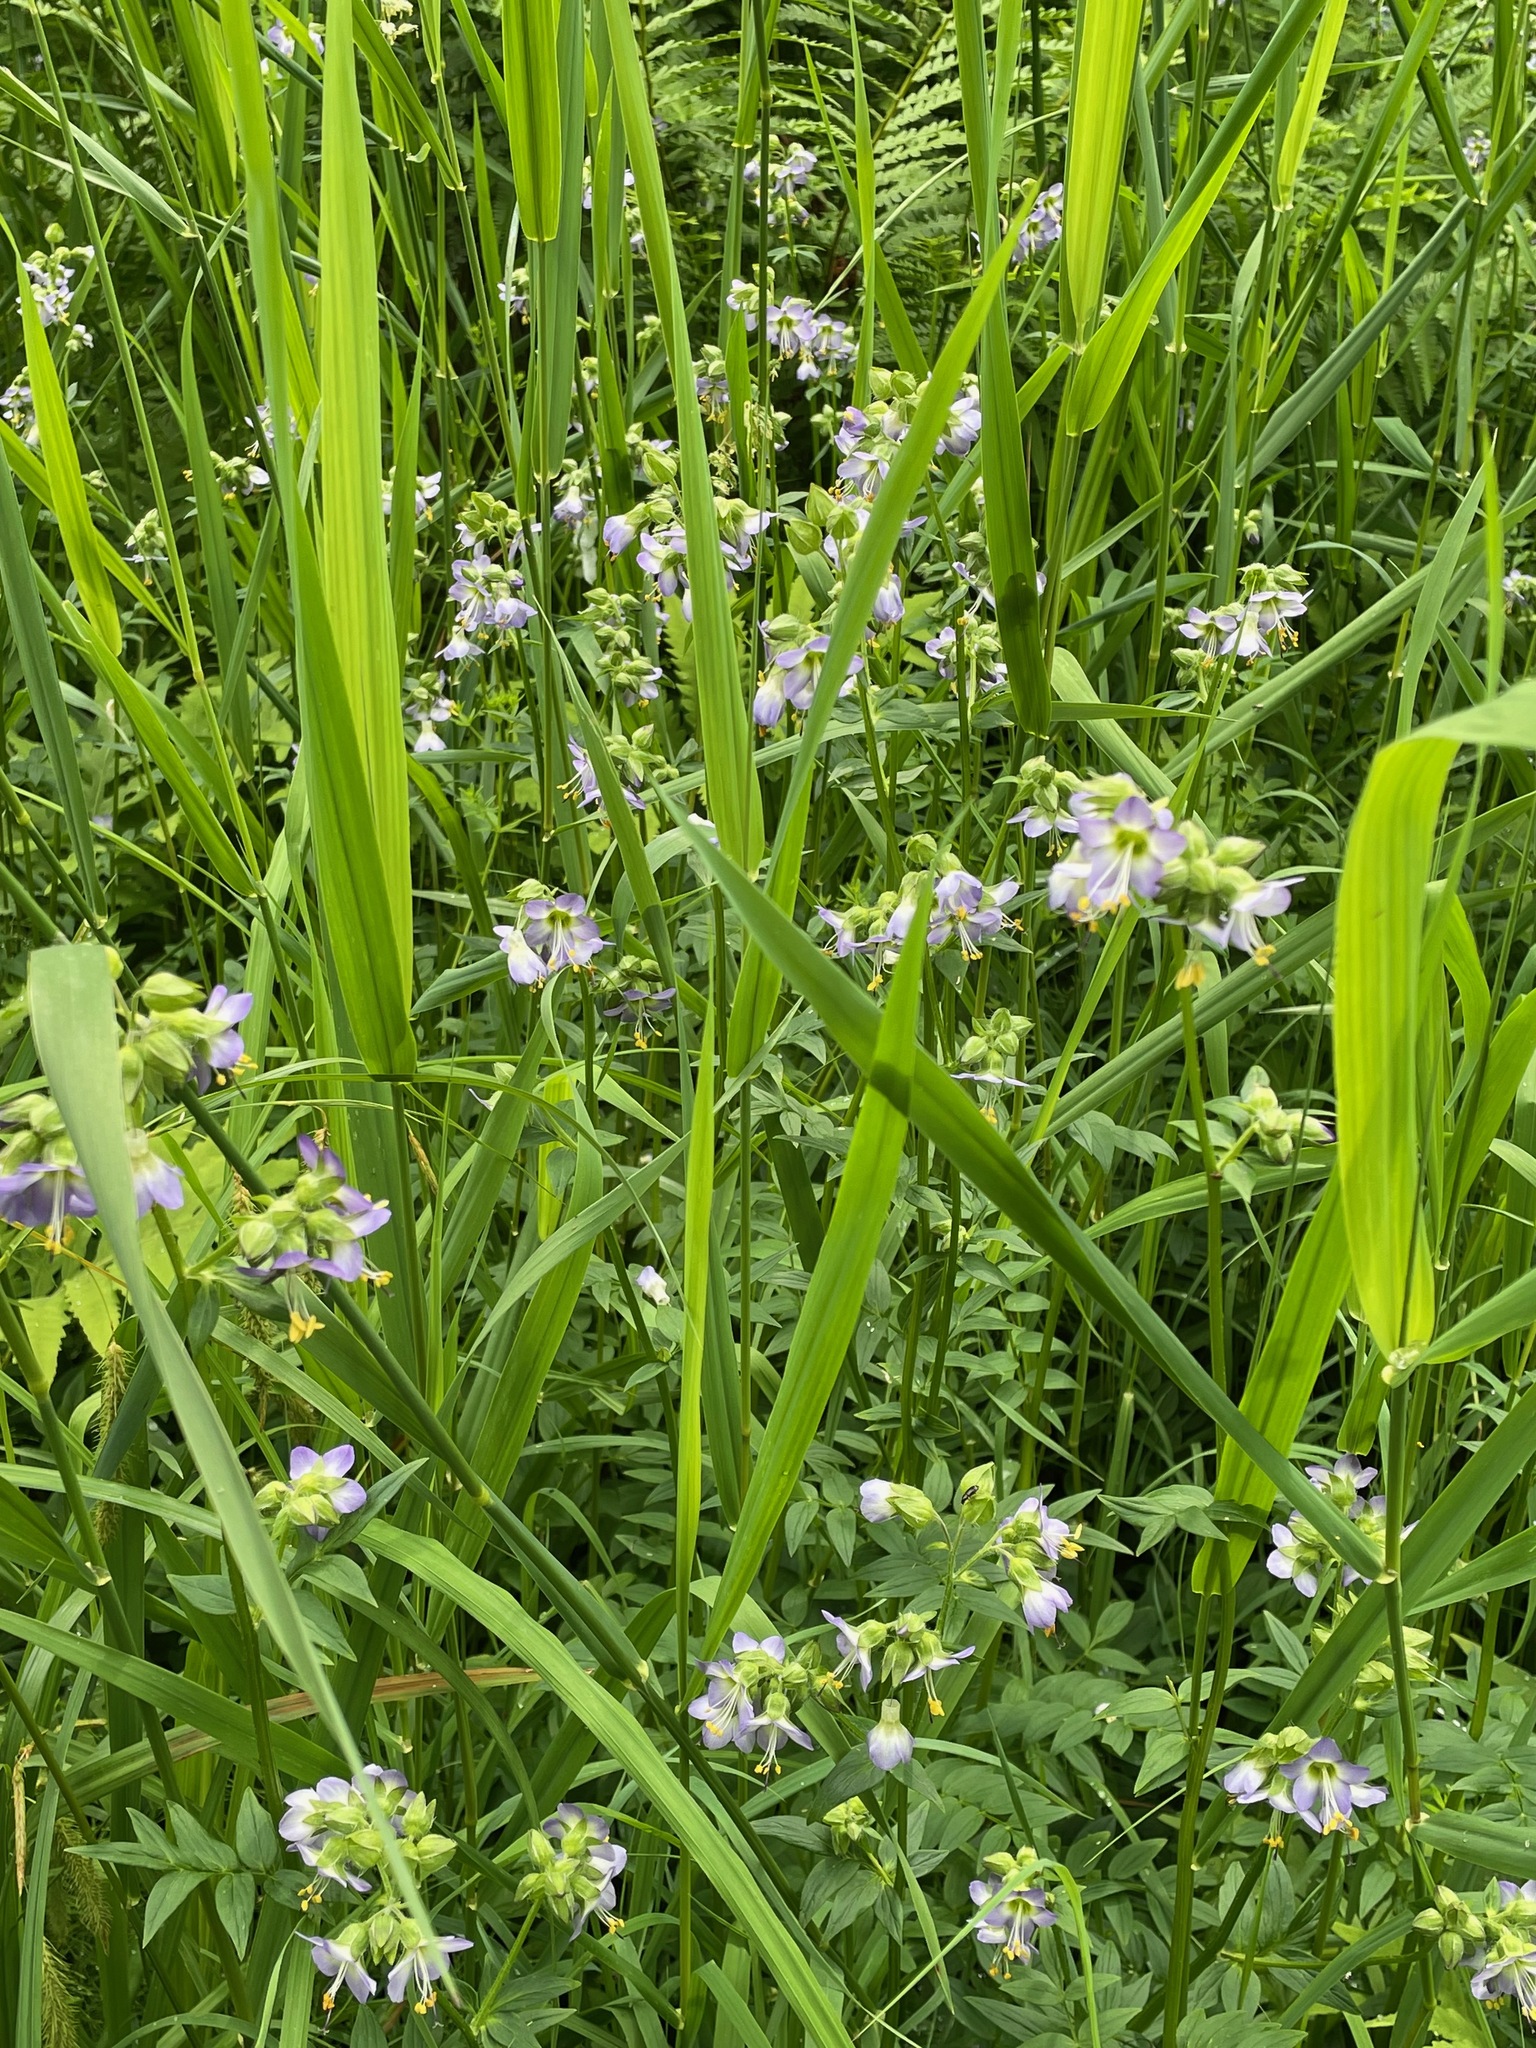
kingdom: Plantae
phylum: Tracheophyta
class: Magnoliopsida
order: Ericales
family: Polemoniaceae
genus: Polemonium
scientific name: Polemonium vanbruntiae
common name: Bog jacob's-ladder
